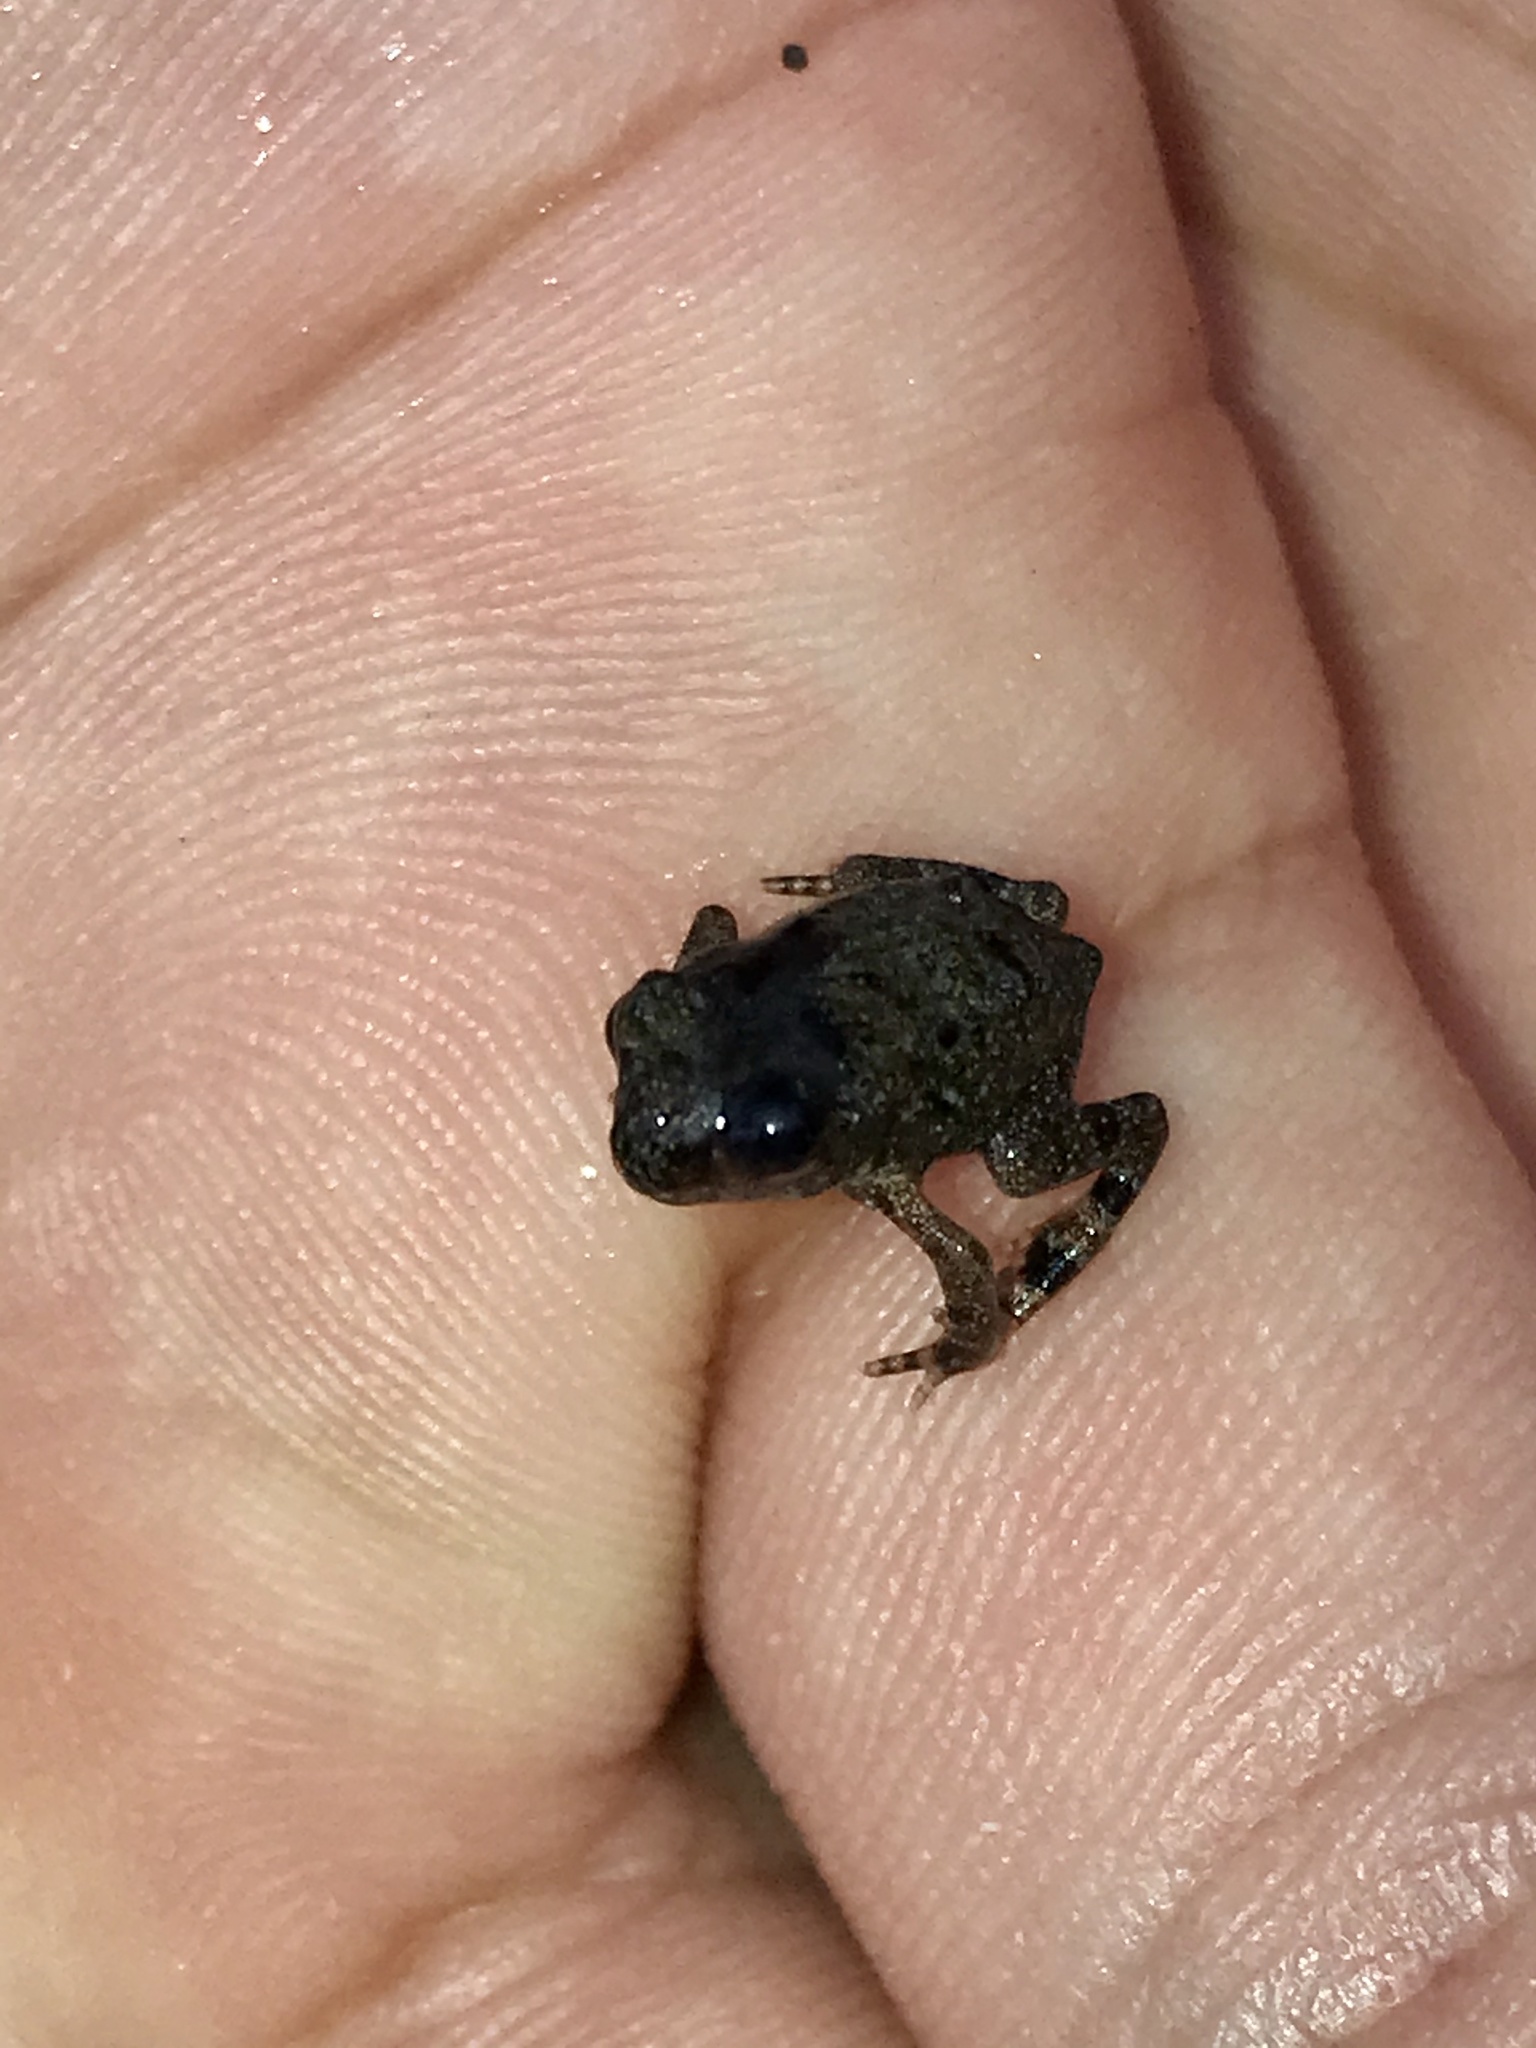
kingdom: Animalia
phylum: Chordata
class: Amphibia
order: Anura
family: Eleutherodactylidae
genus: Eleutherodactylus
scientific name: Eleutherodactylus campi
